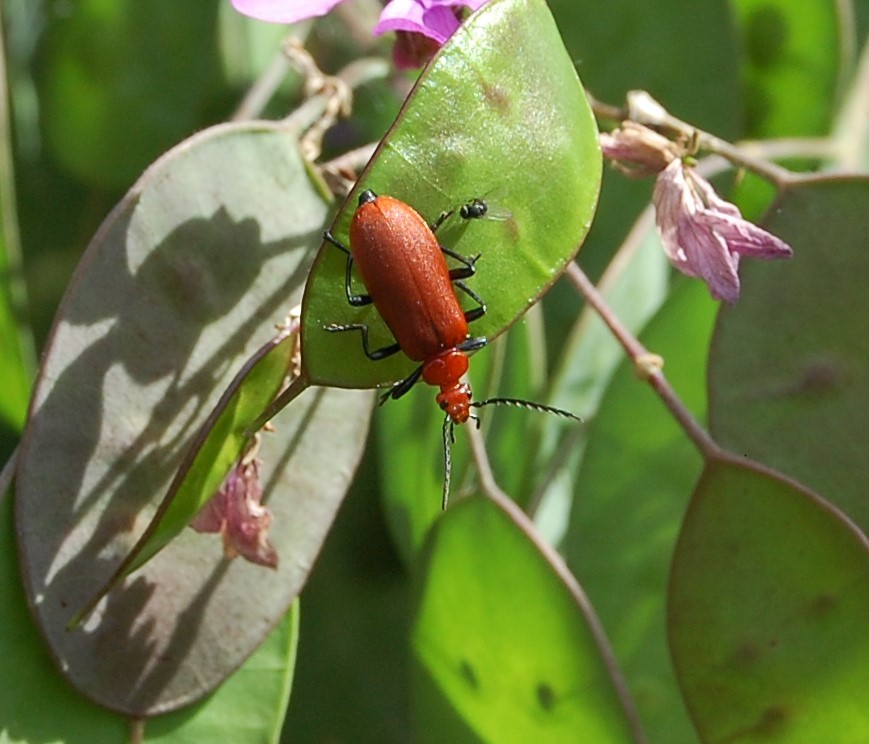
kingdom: Animalia
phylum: Arthropoda
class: Insecta
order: Coleoptera
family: Pyrochroidae
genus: Pyrochroa
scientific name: Pyrochroa serraticornis
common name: Red-headed cardinal beetle
